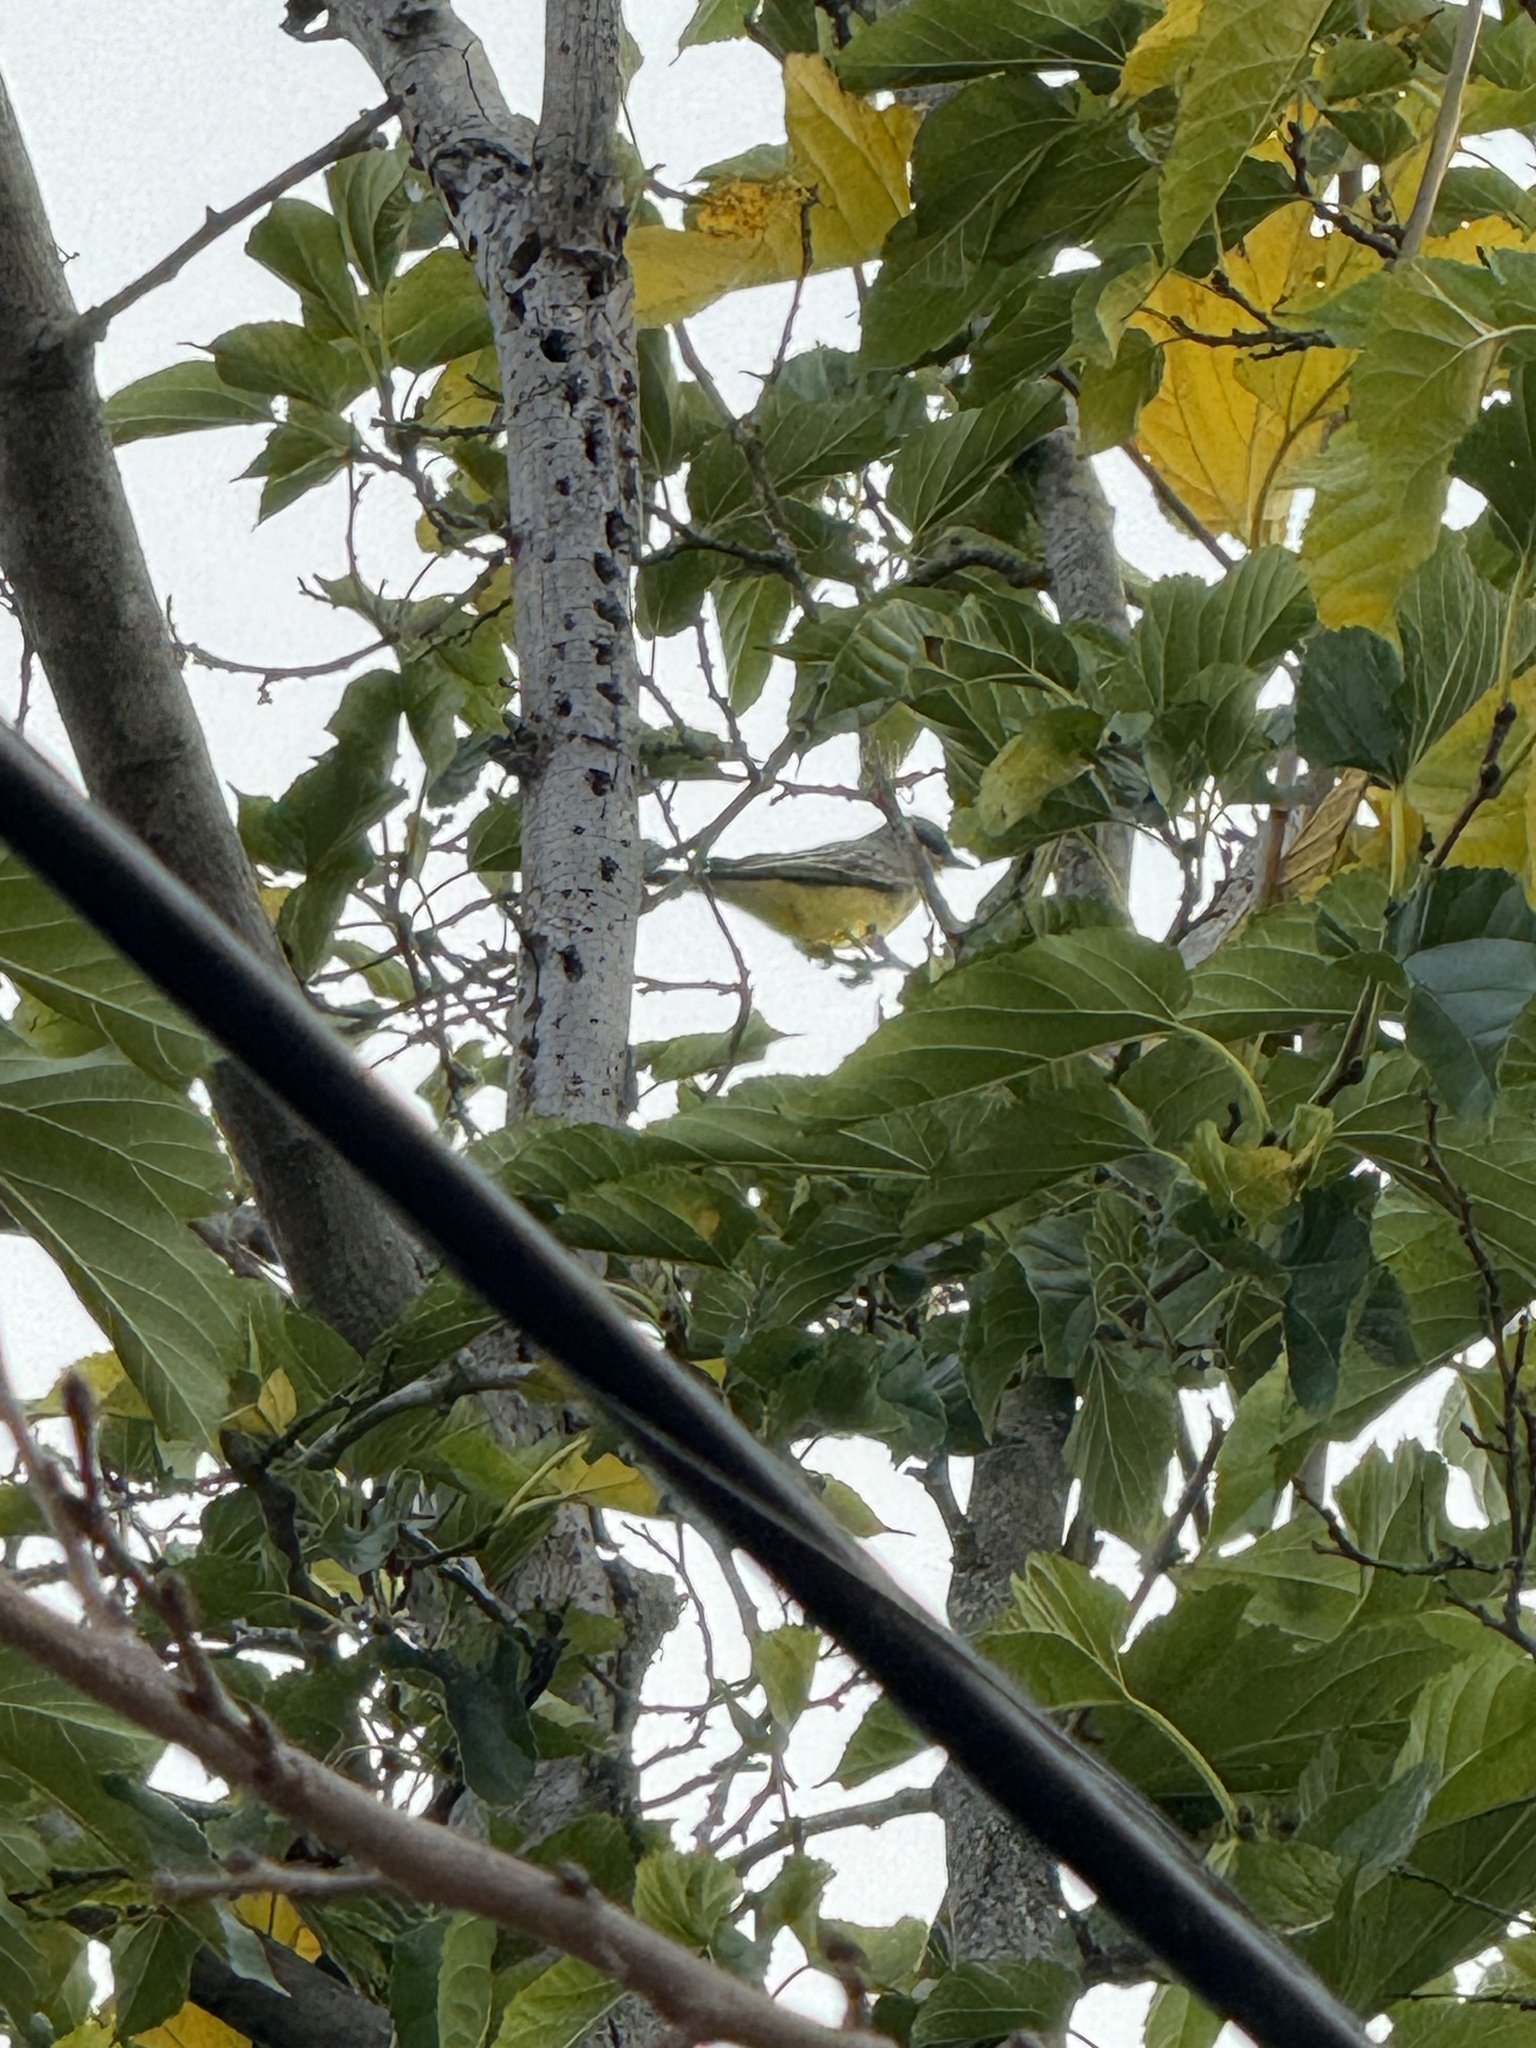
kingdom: Animalia
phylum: Chordata
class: Aves
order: Passeriformes
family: Tyrannidae
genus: Tyrannus
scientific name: Tyrannus vociferans
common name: Cassin's kingbird
